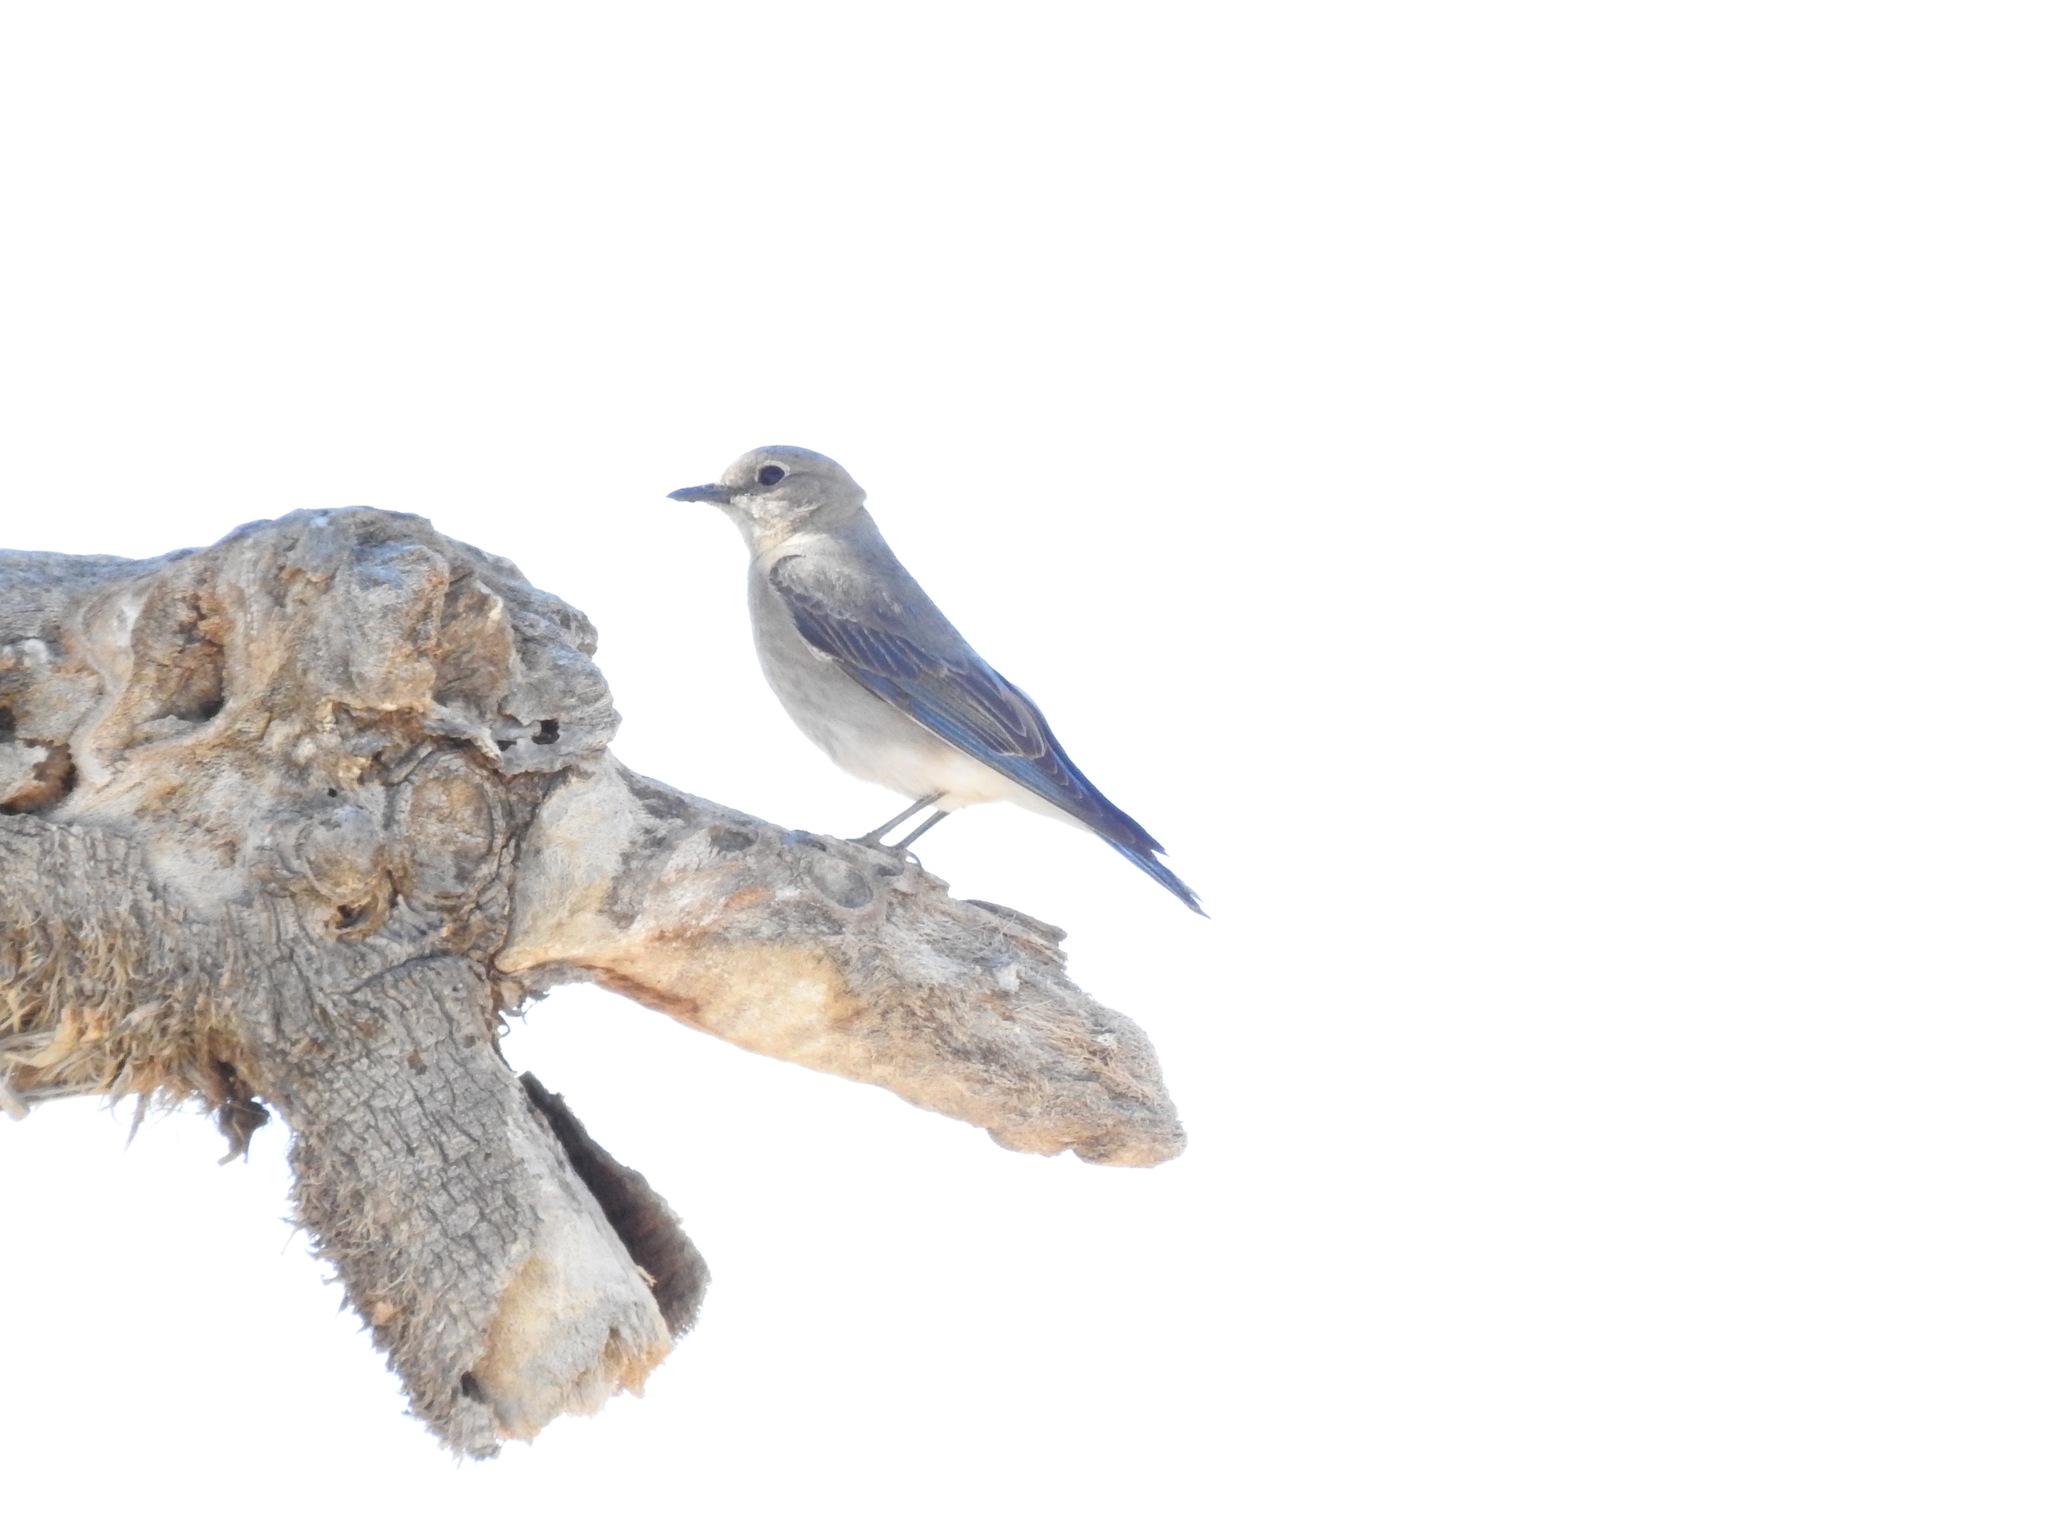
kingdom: Animalia
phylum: Chordata
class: Aves
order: Passeriformes
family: Turdidae
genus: Sialia
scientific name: Sialia currucoides
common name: Mountain bluebird
